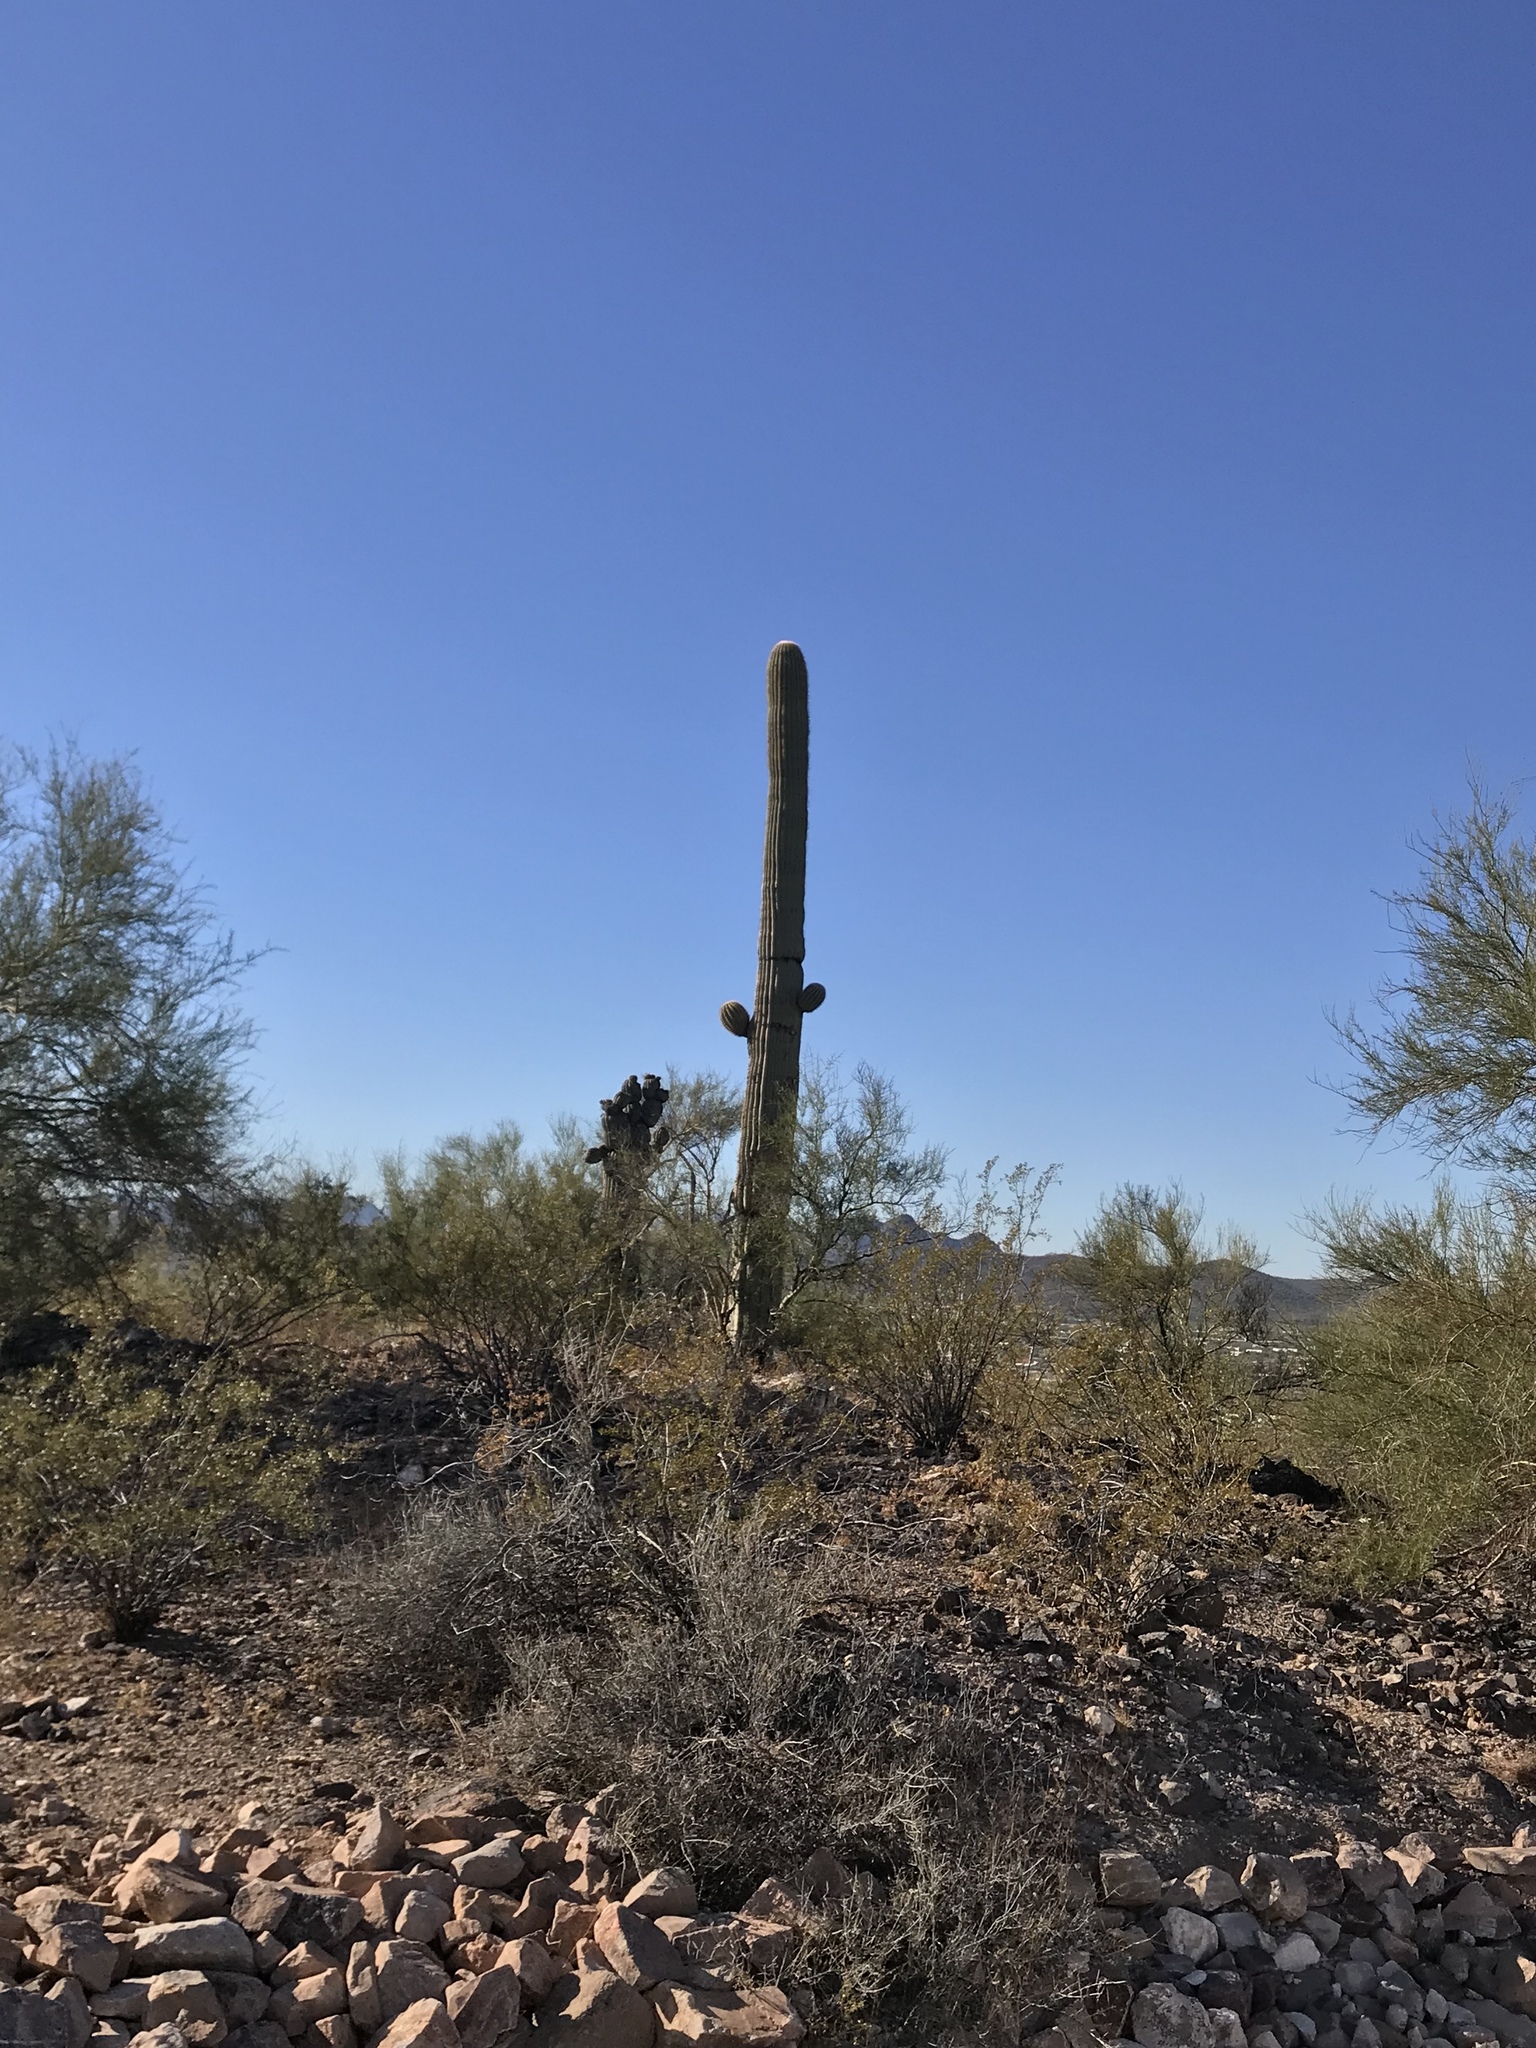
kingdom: Plantae
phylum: Tracheophyta
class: Magnoliopsida
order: Caryophyllales
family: Cactaceae
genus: Carnegiea
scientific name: Carnegiea gigantea
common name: Saguaro
